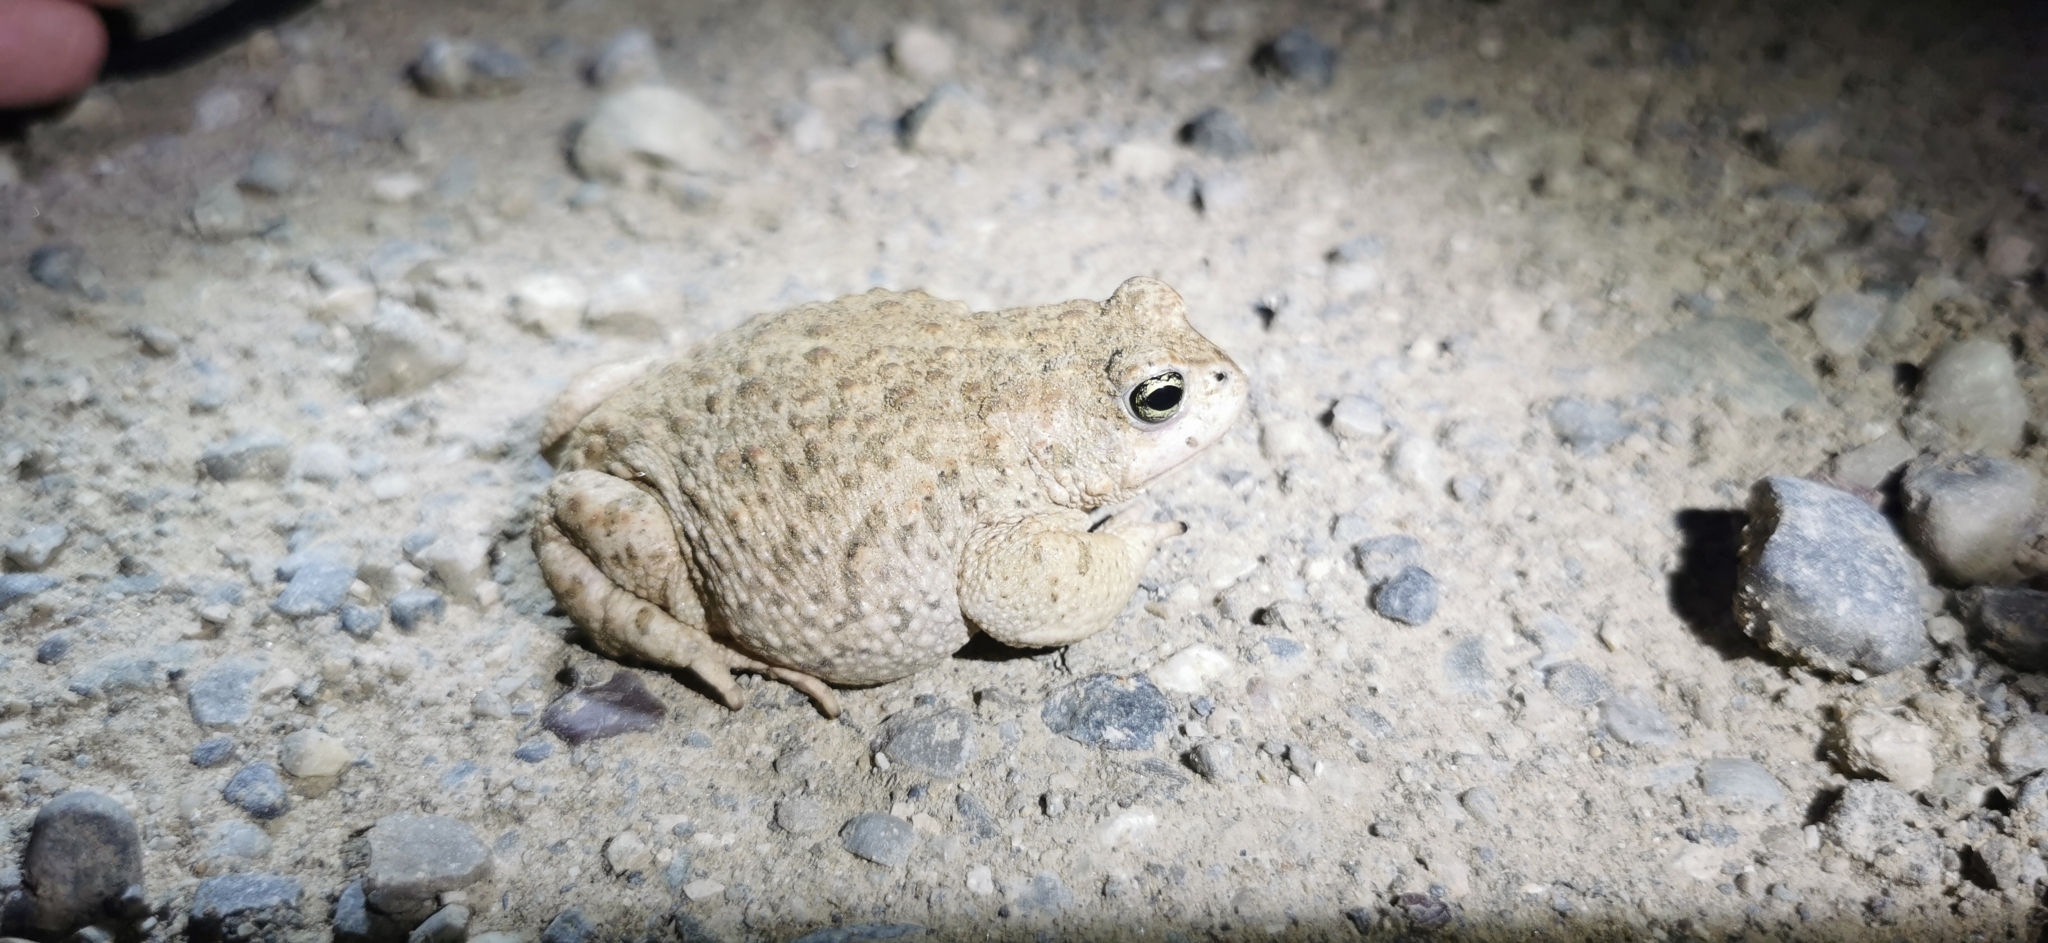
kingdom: Animalia
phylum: Chordata
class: Amphibia
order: Anura
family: Bufonidae
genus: Epidalea
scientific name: Epidalea calamita
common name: Natterjack toad
